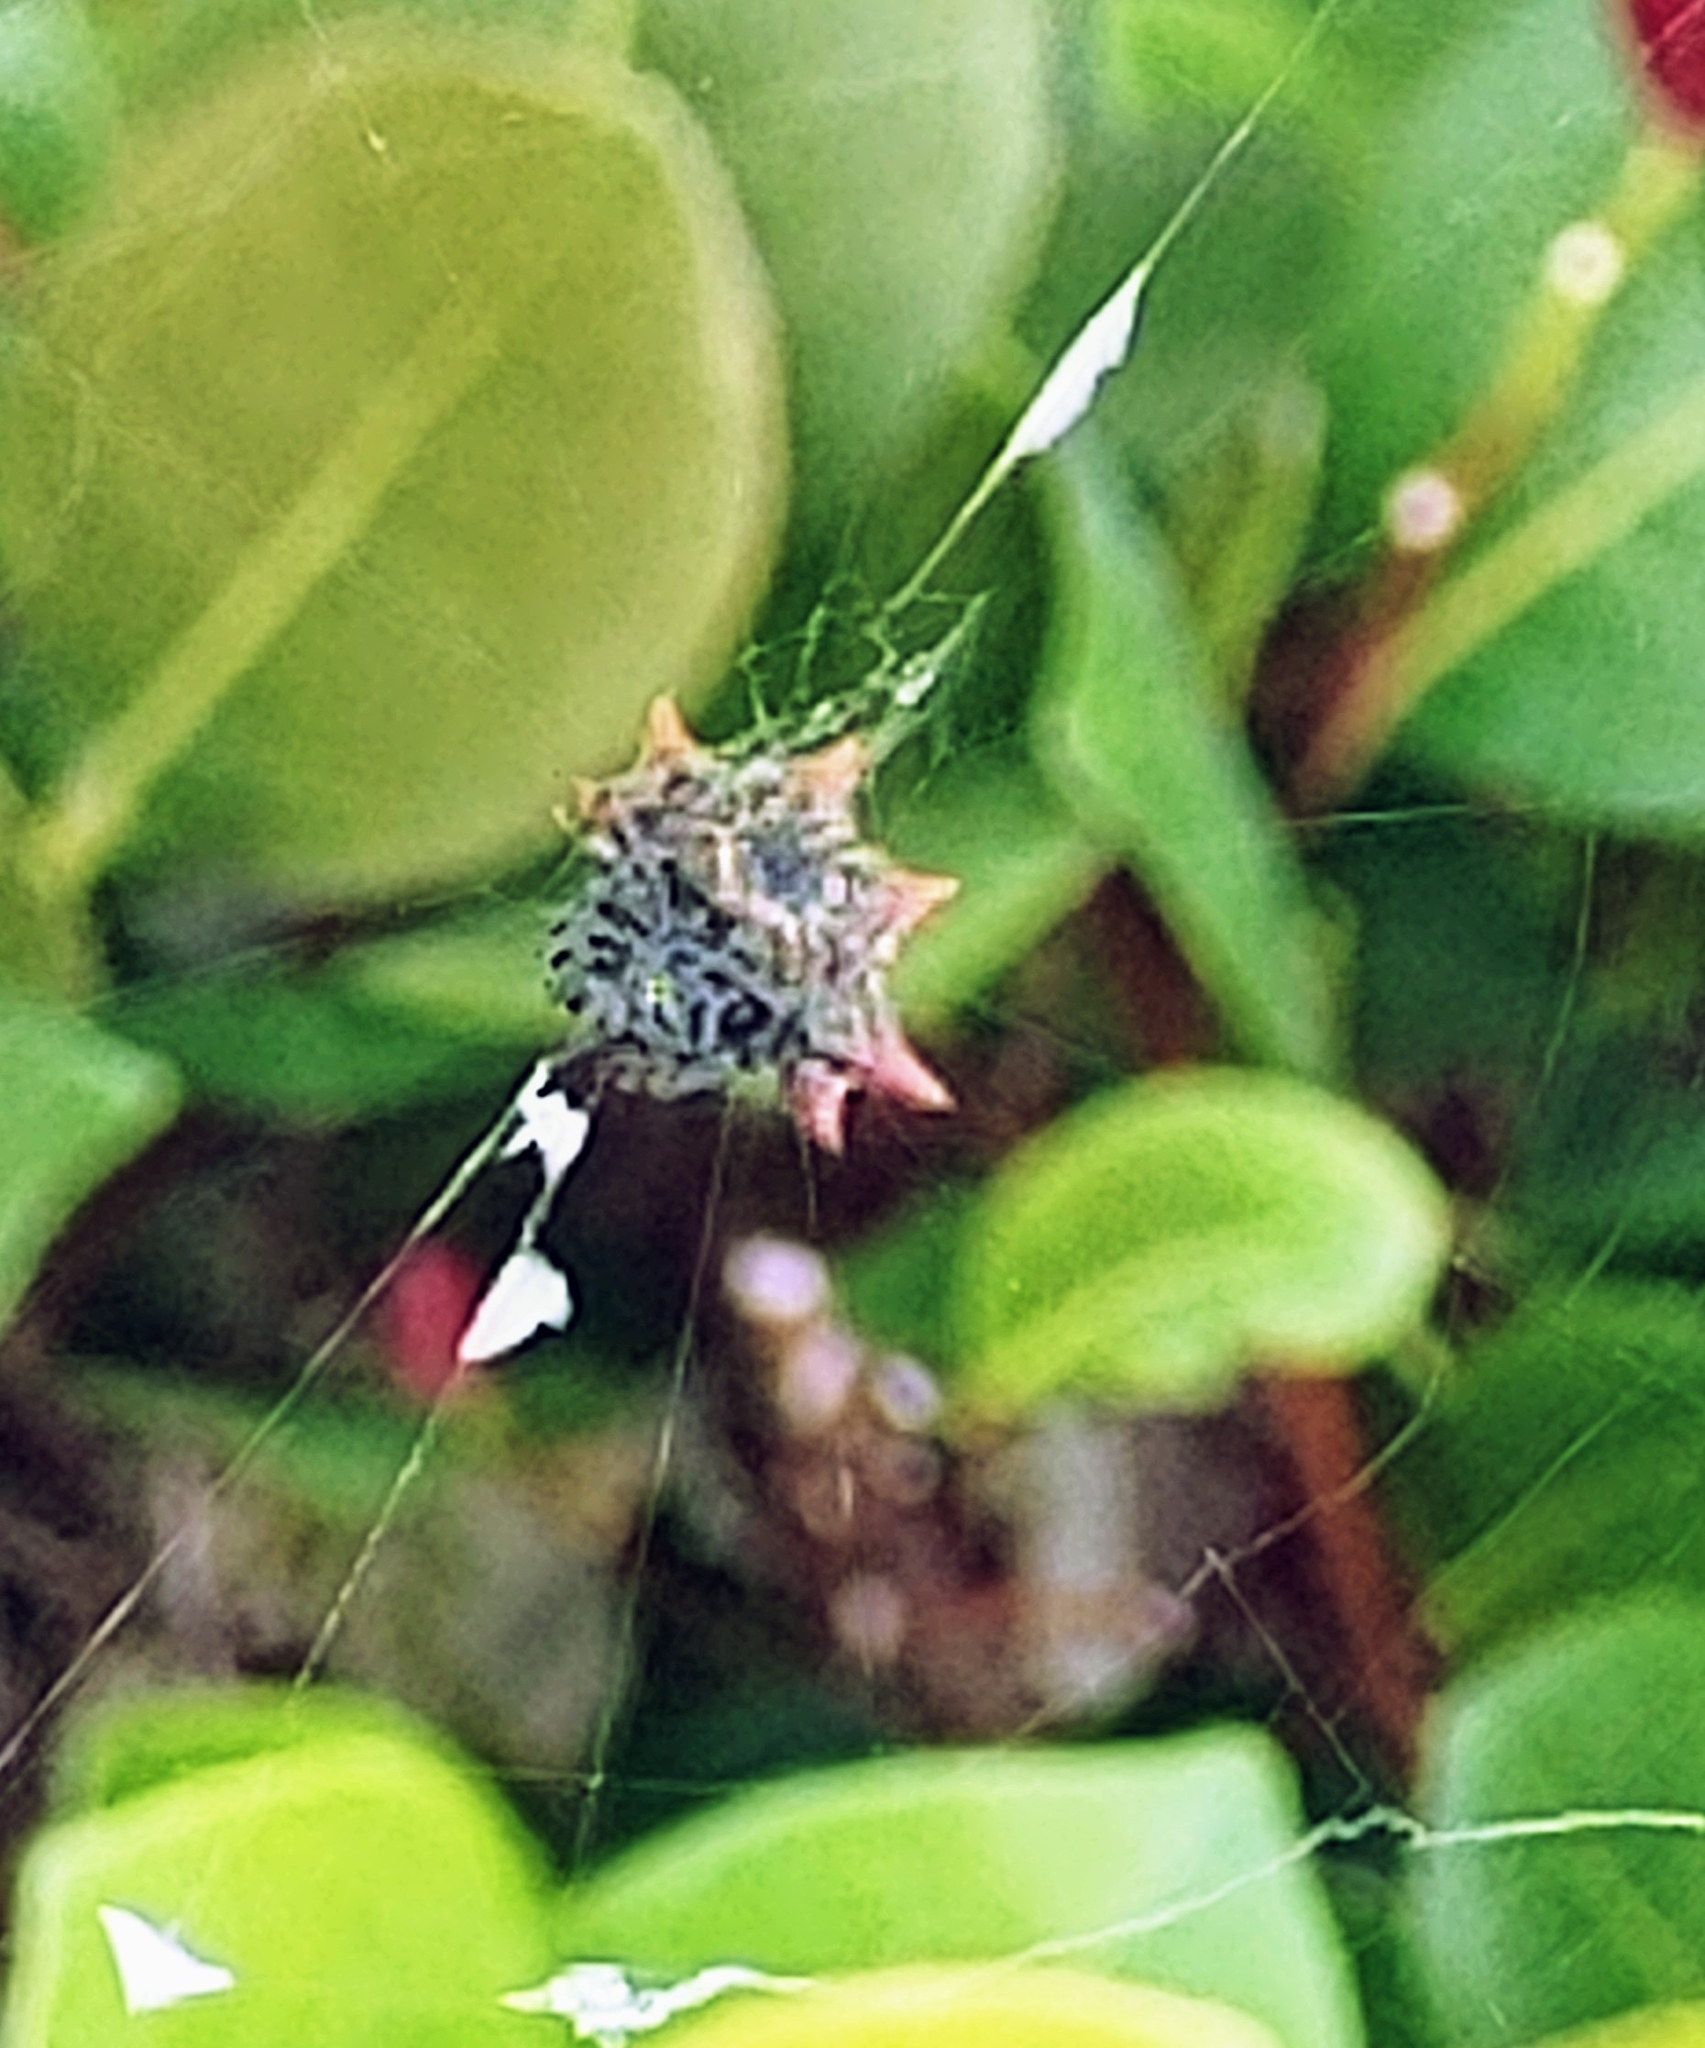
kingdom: Animalia
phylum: Arthropoda
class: Arachnida
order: Araneae
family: Araneidae
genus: Gasteracantha
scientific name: Gasteracantha cancriformis
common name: Orb weavers
